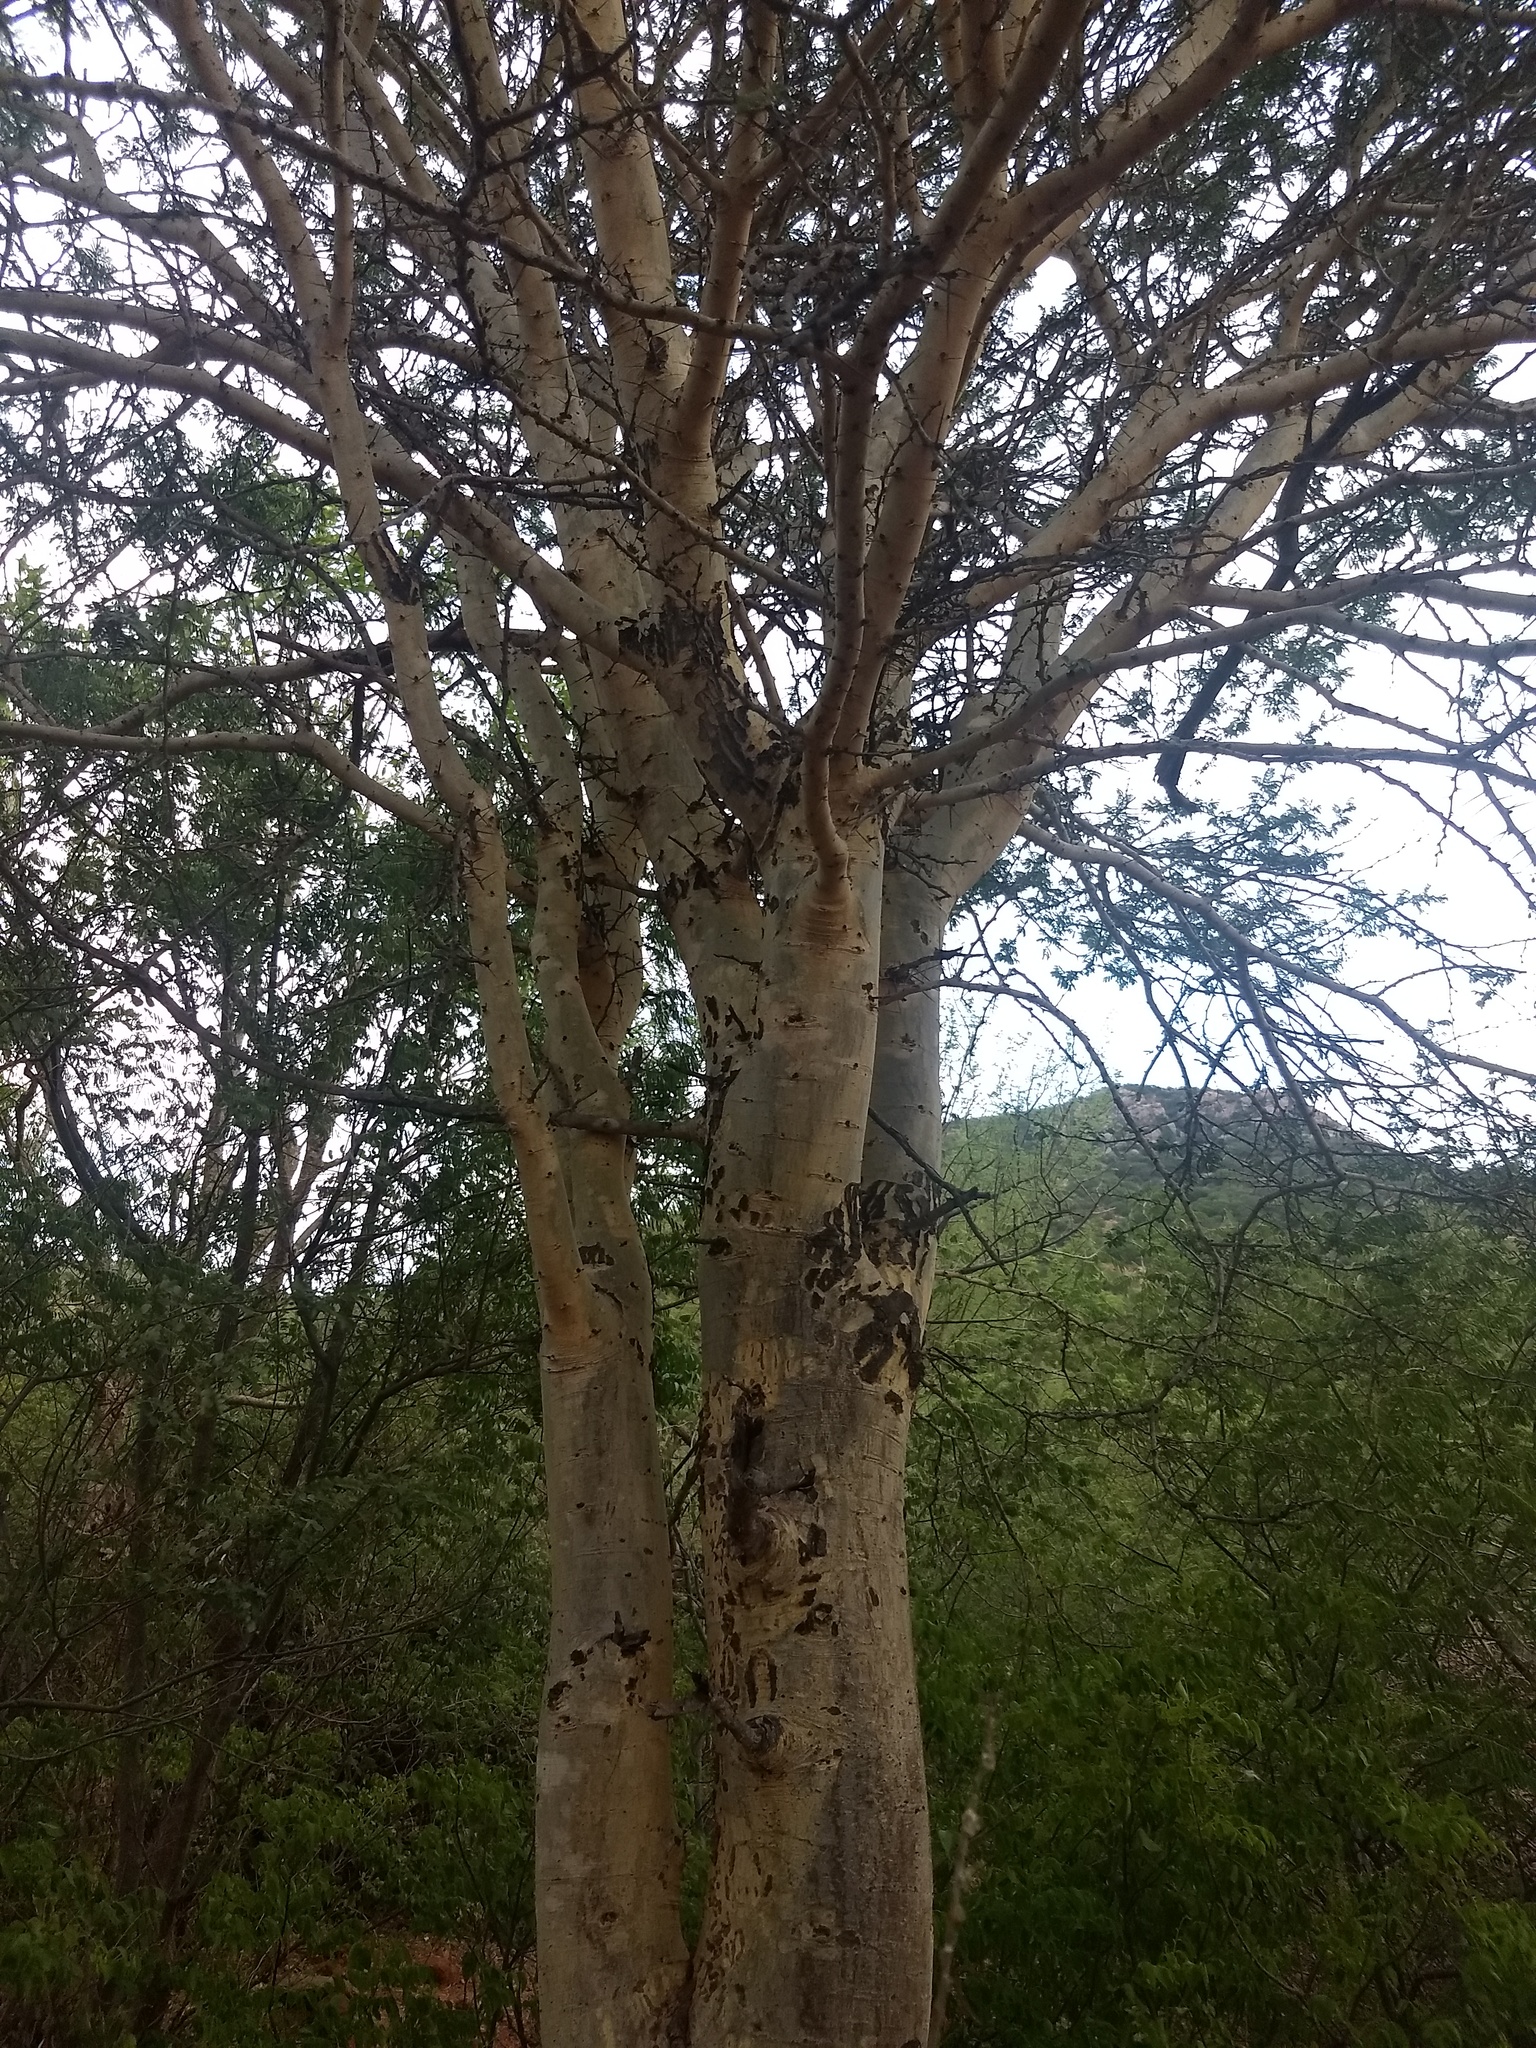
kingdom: Plantae
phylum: Tracheophyta
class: Magnoliopsida
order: Fabales
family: Fabaceae
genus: Vachellia
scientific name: Vachellia leucophloea
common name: Distiller's acacia
